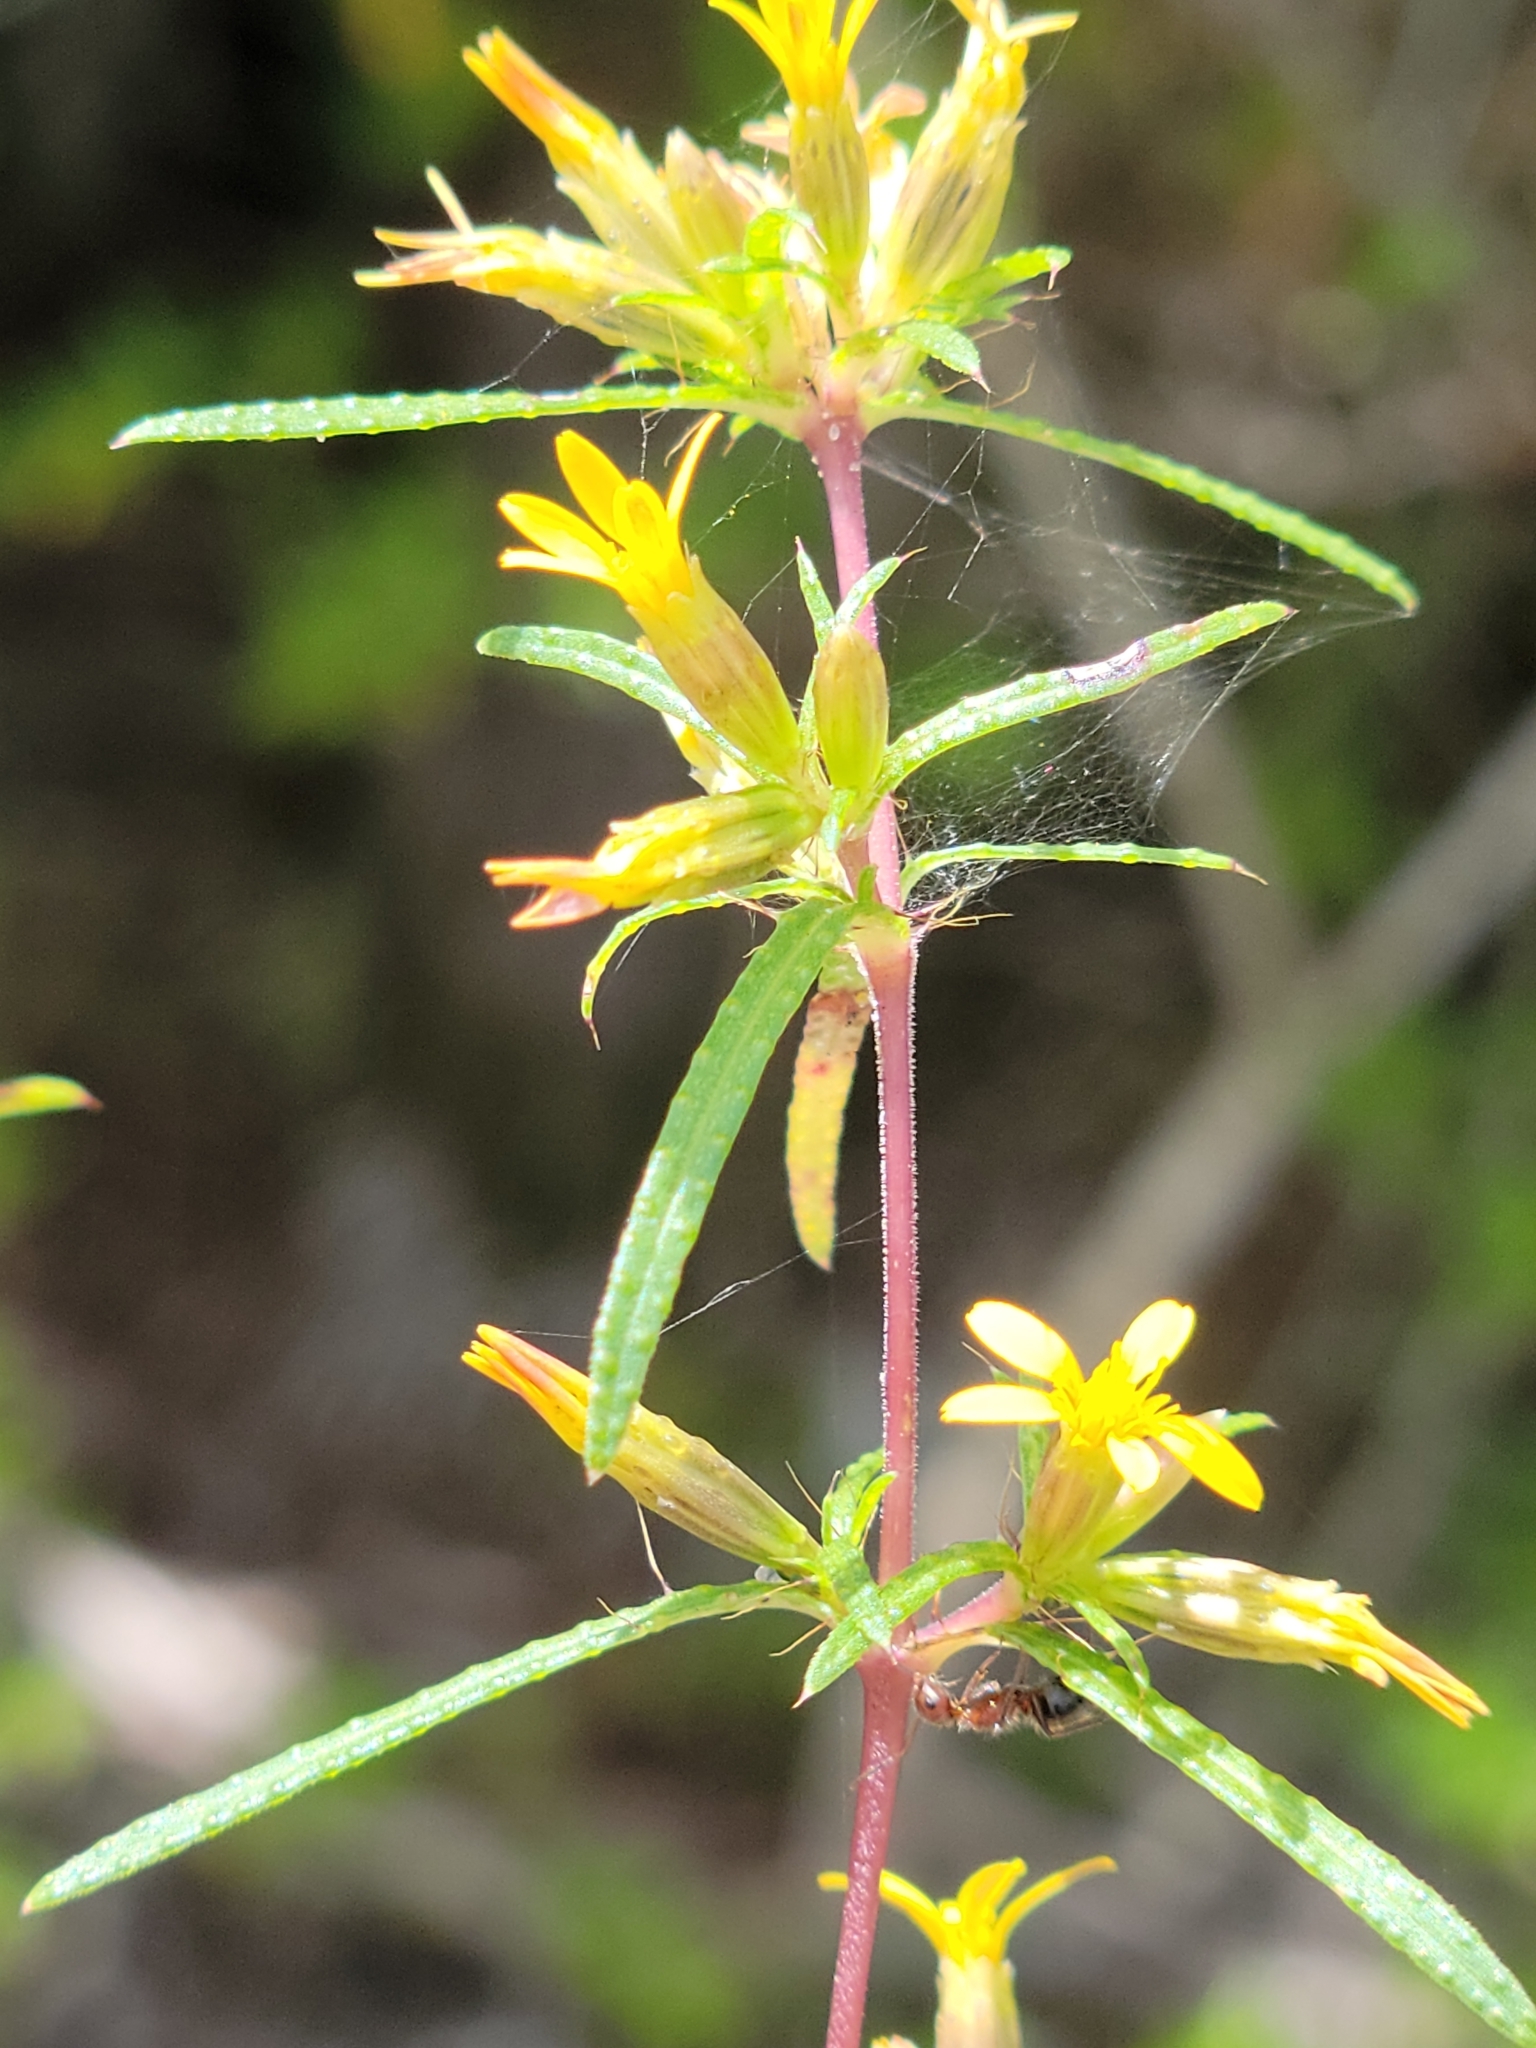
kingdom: Plantae
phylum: Tracheophyta
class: Magnoliopsida
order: Asterales
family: Asteraceae
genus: Pectis
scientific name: Pectis linearifolia
